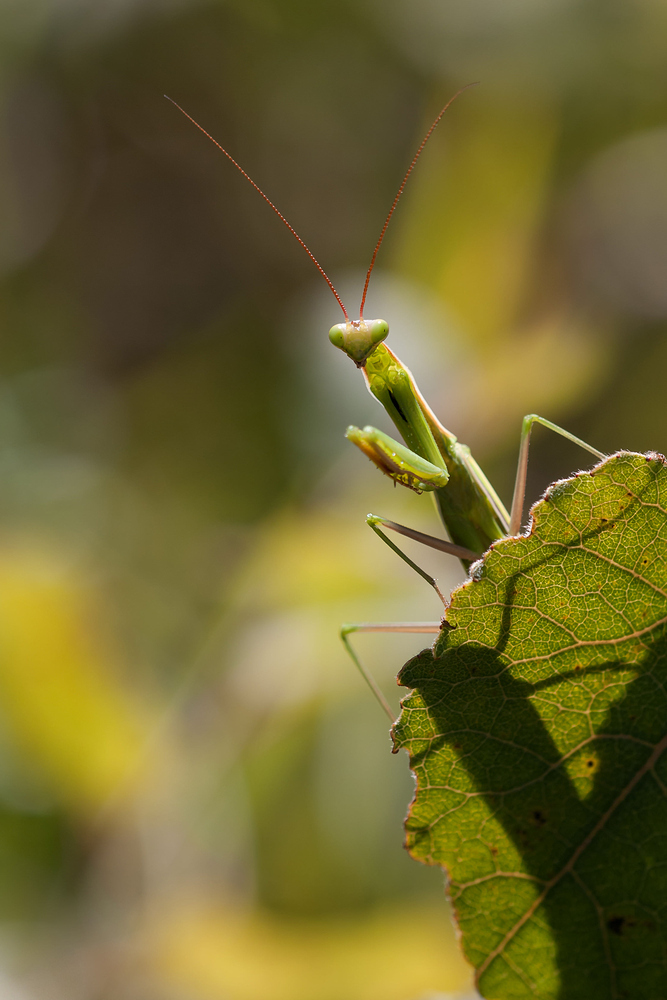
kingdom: Animalia
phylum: Arthropoda
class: Insecta
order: Mantodea
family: Mantidae
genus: Mantis
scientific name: Mantis religiosa
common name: Praying mantis
